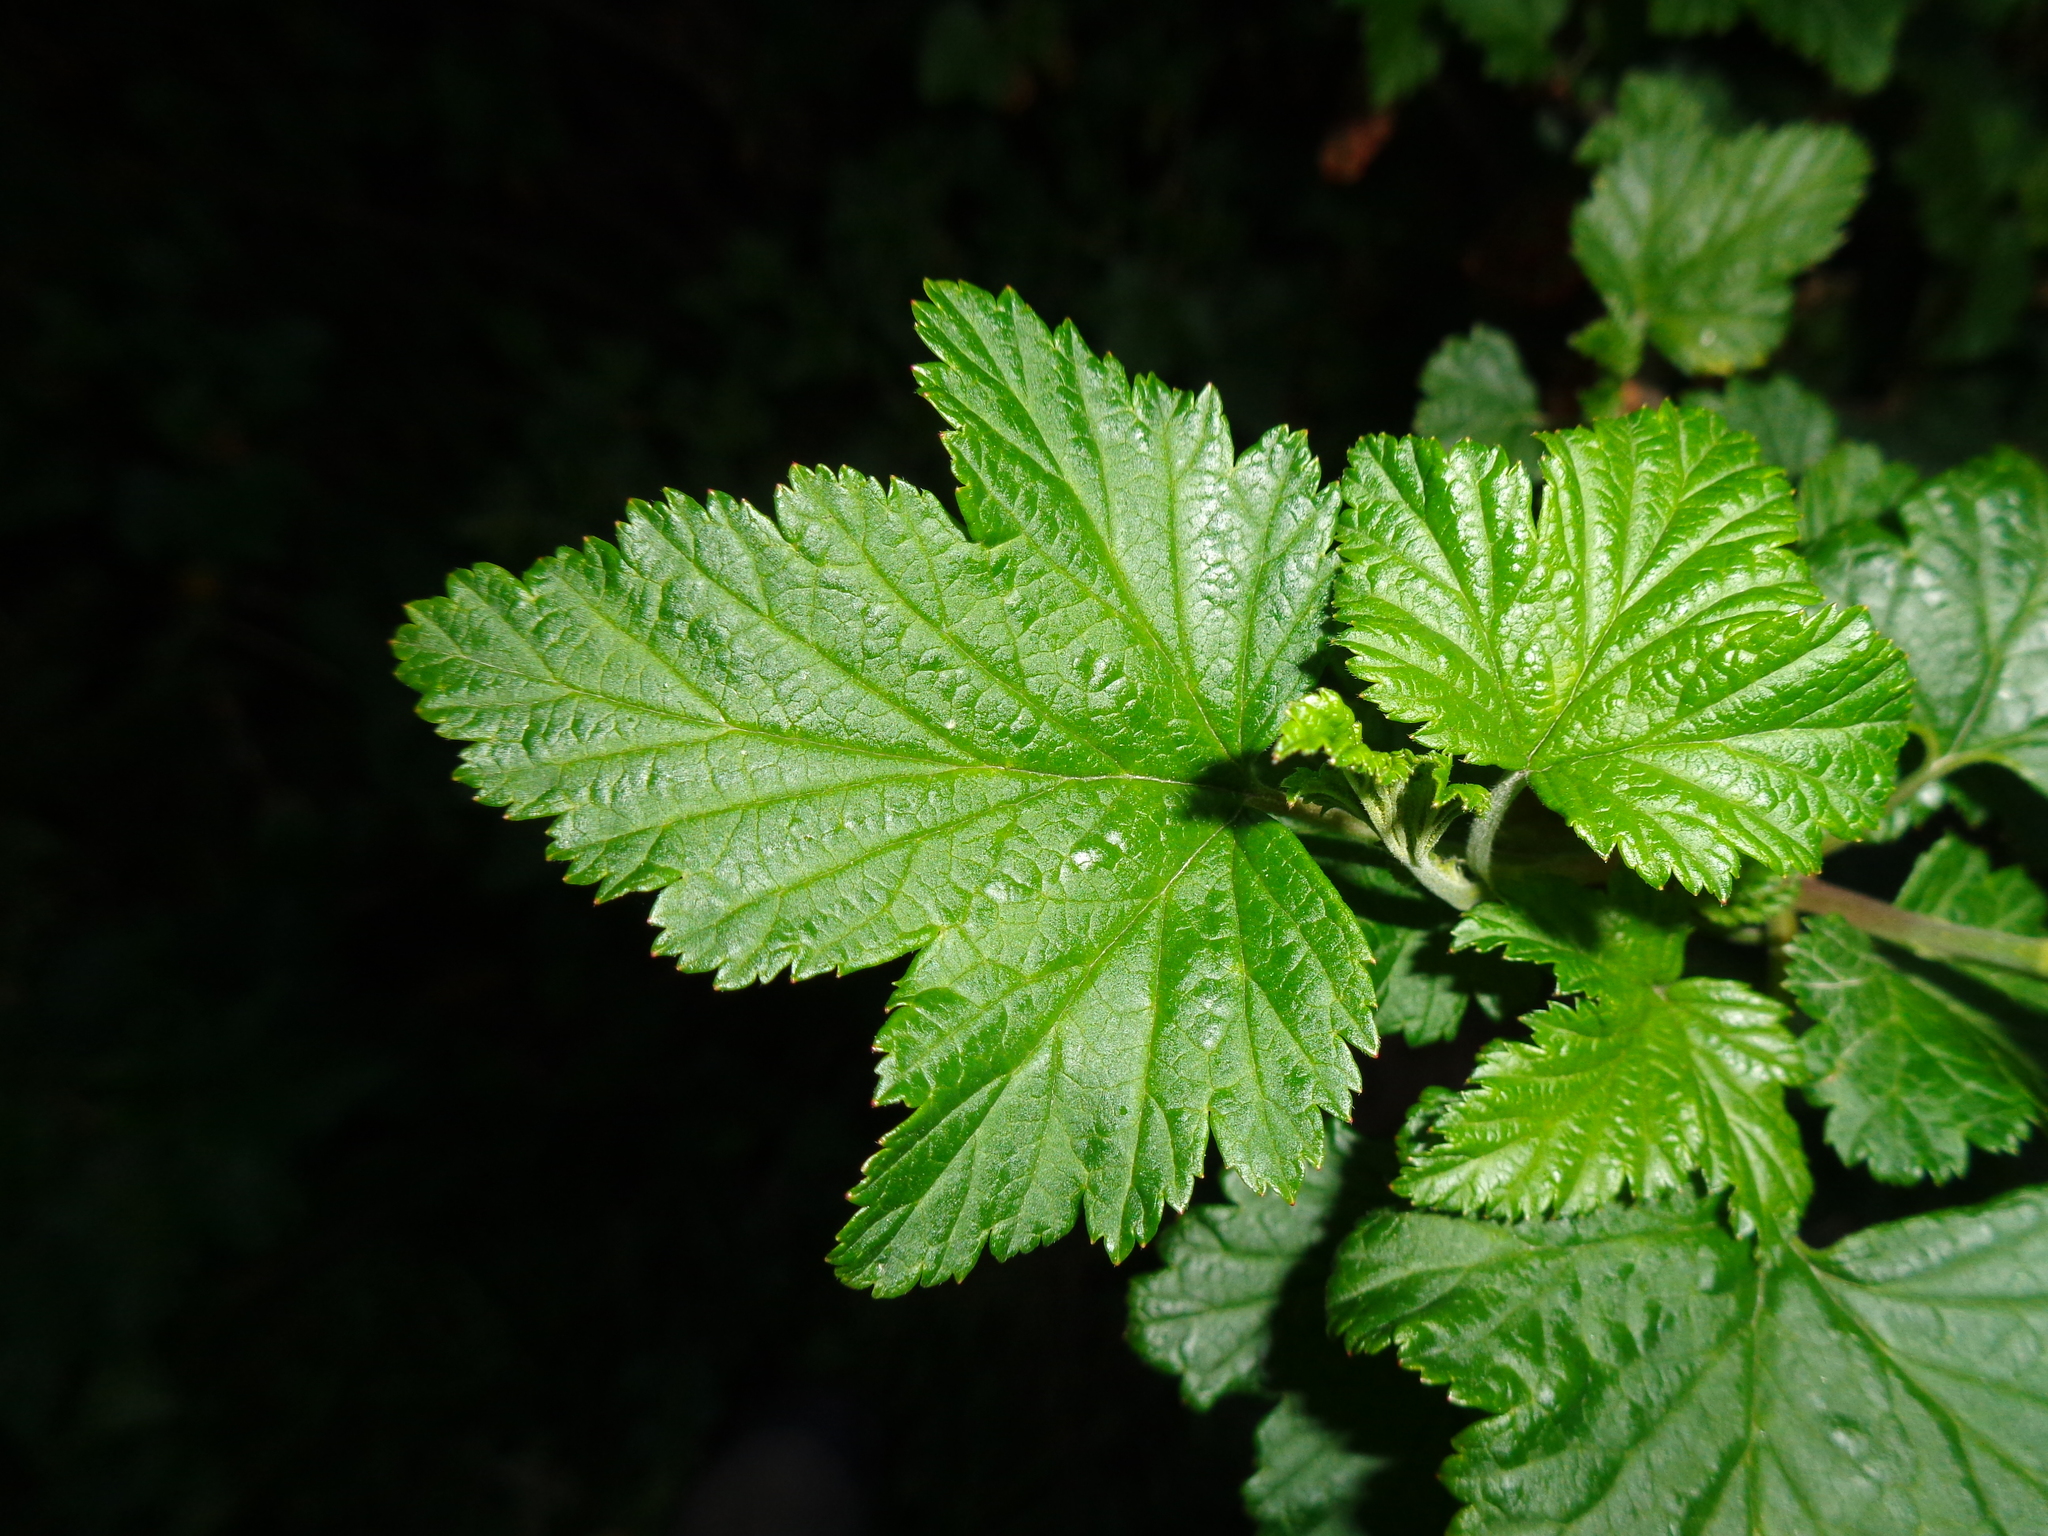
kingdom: Plantae
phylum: Tracheophyta
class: Magnoliopsida
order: Saxifragales
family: Grossulariaceae
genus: Ribes
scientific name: Ribes magellanicum
